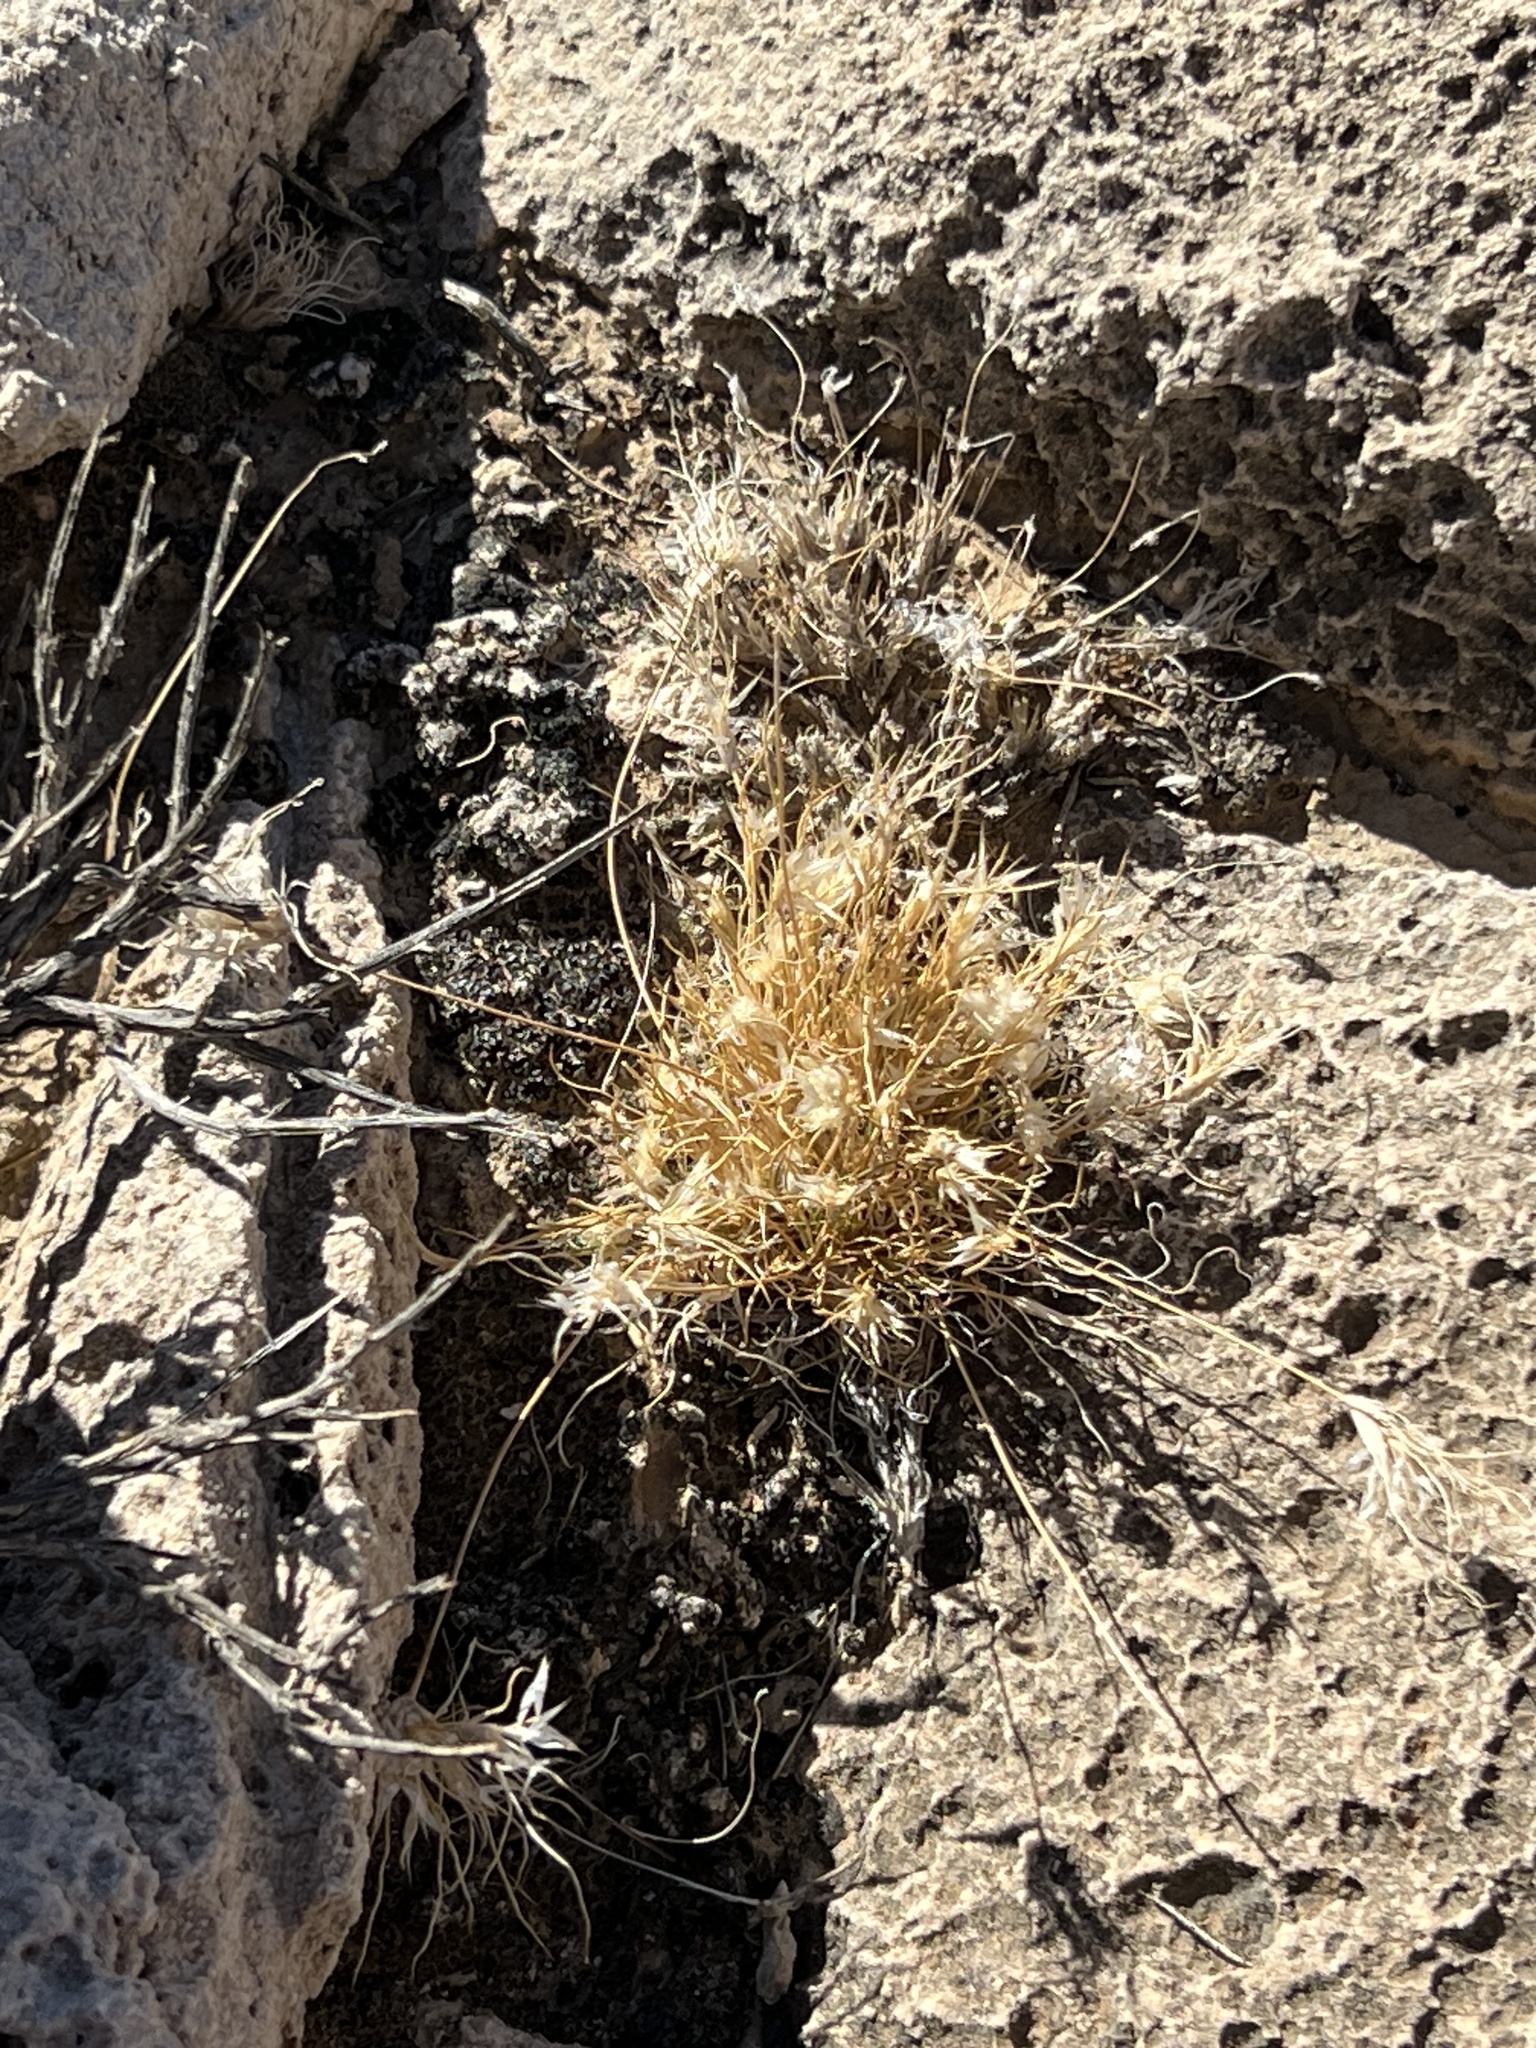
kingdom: Plantae
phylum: Tracheophyta
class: Liliopsida
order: Poales
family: Poaceae
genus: Dasyochloa
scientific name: Dasyochloa pulchella
